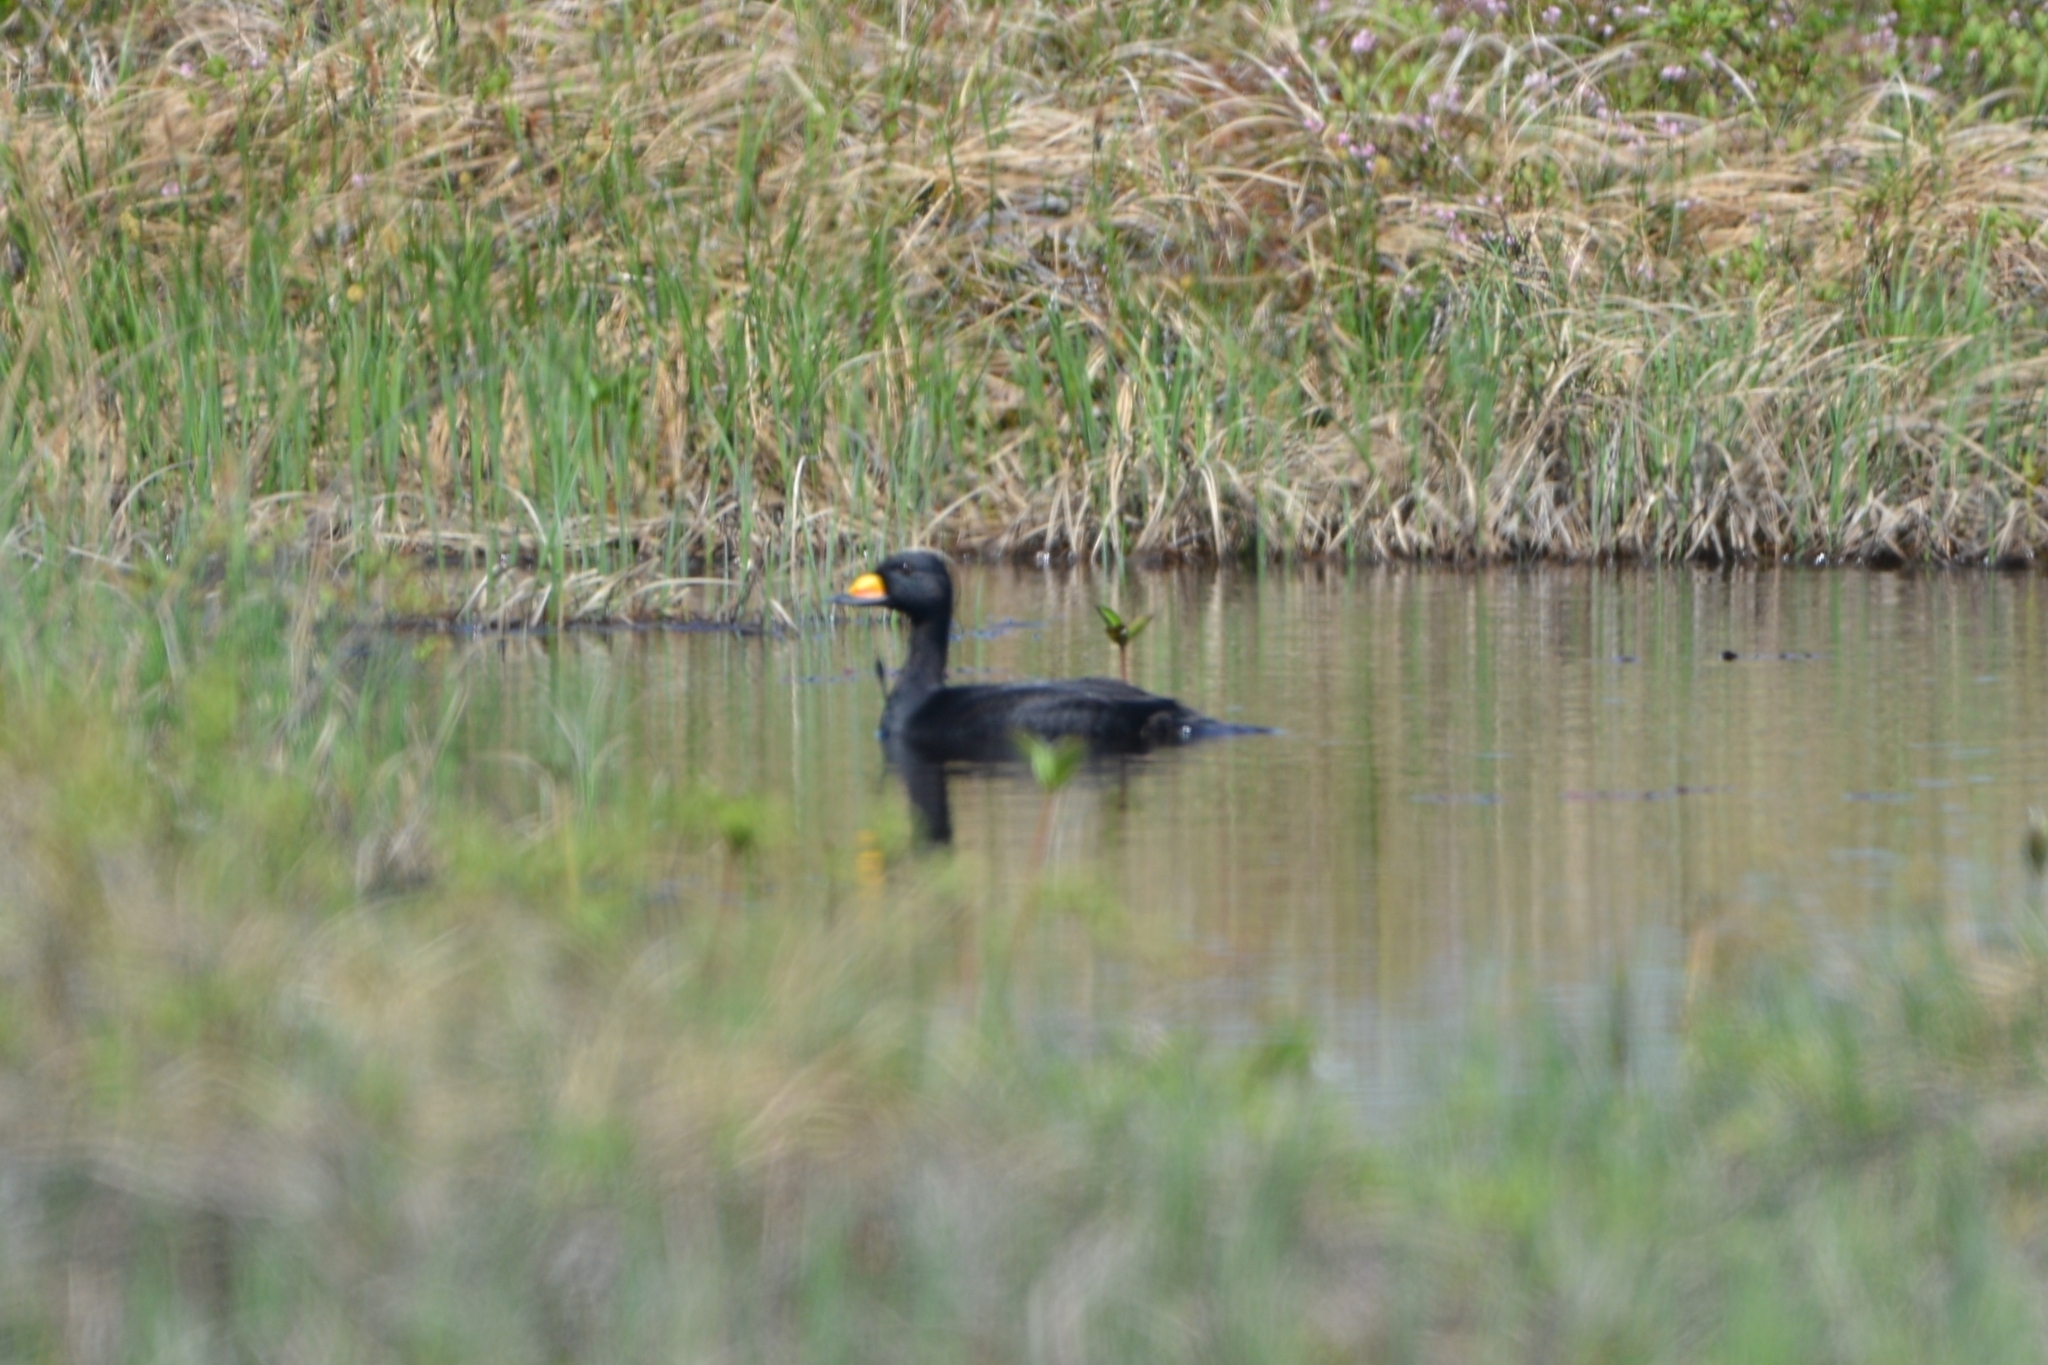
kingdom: Animalia
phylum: Chordata
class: Aves
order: Anseriformes
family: Anatidae
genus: Melanitta
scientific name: Melanitta americana
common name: Black scoter
